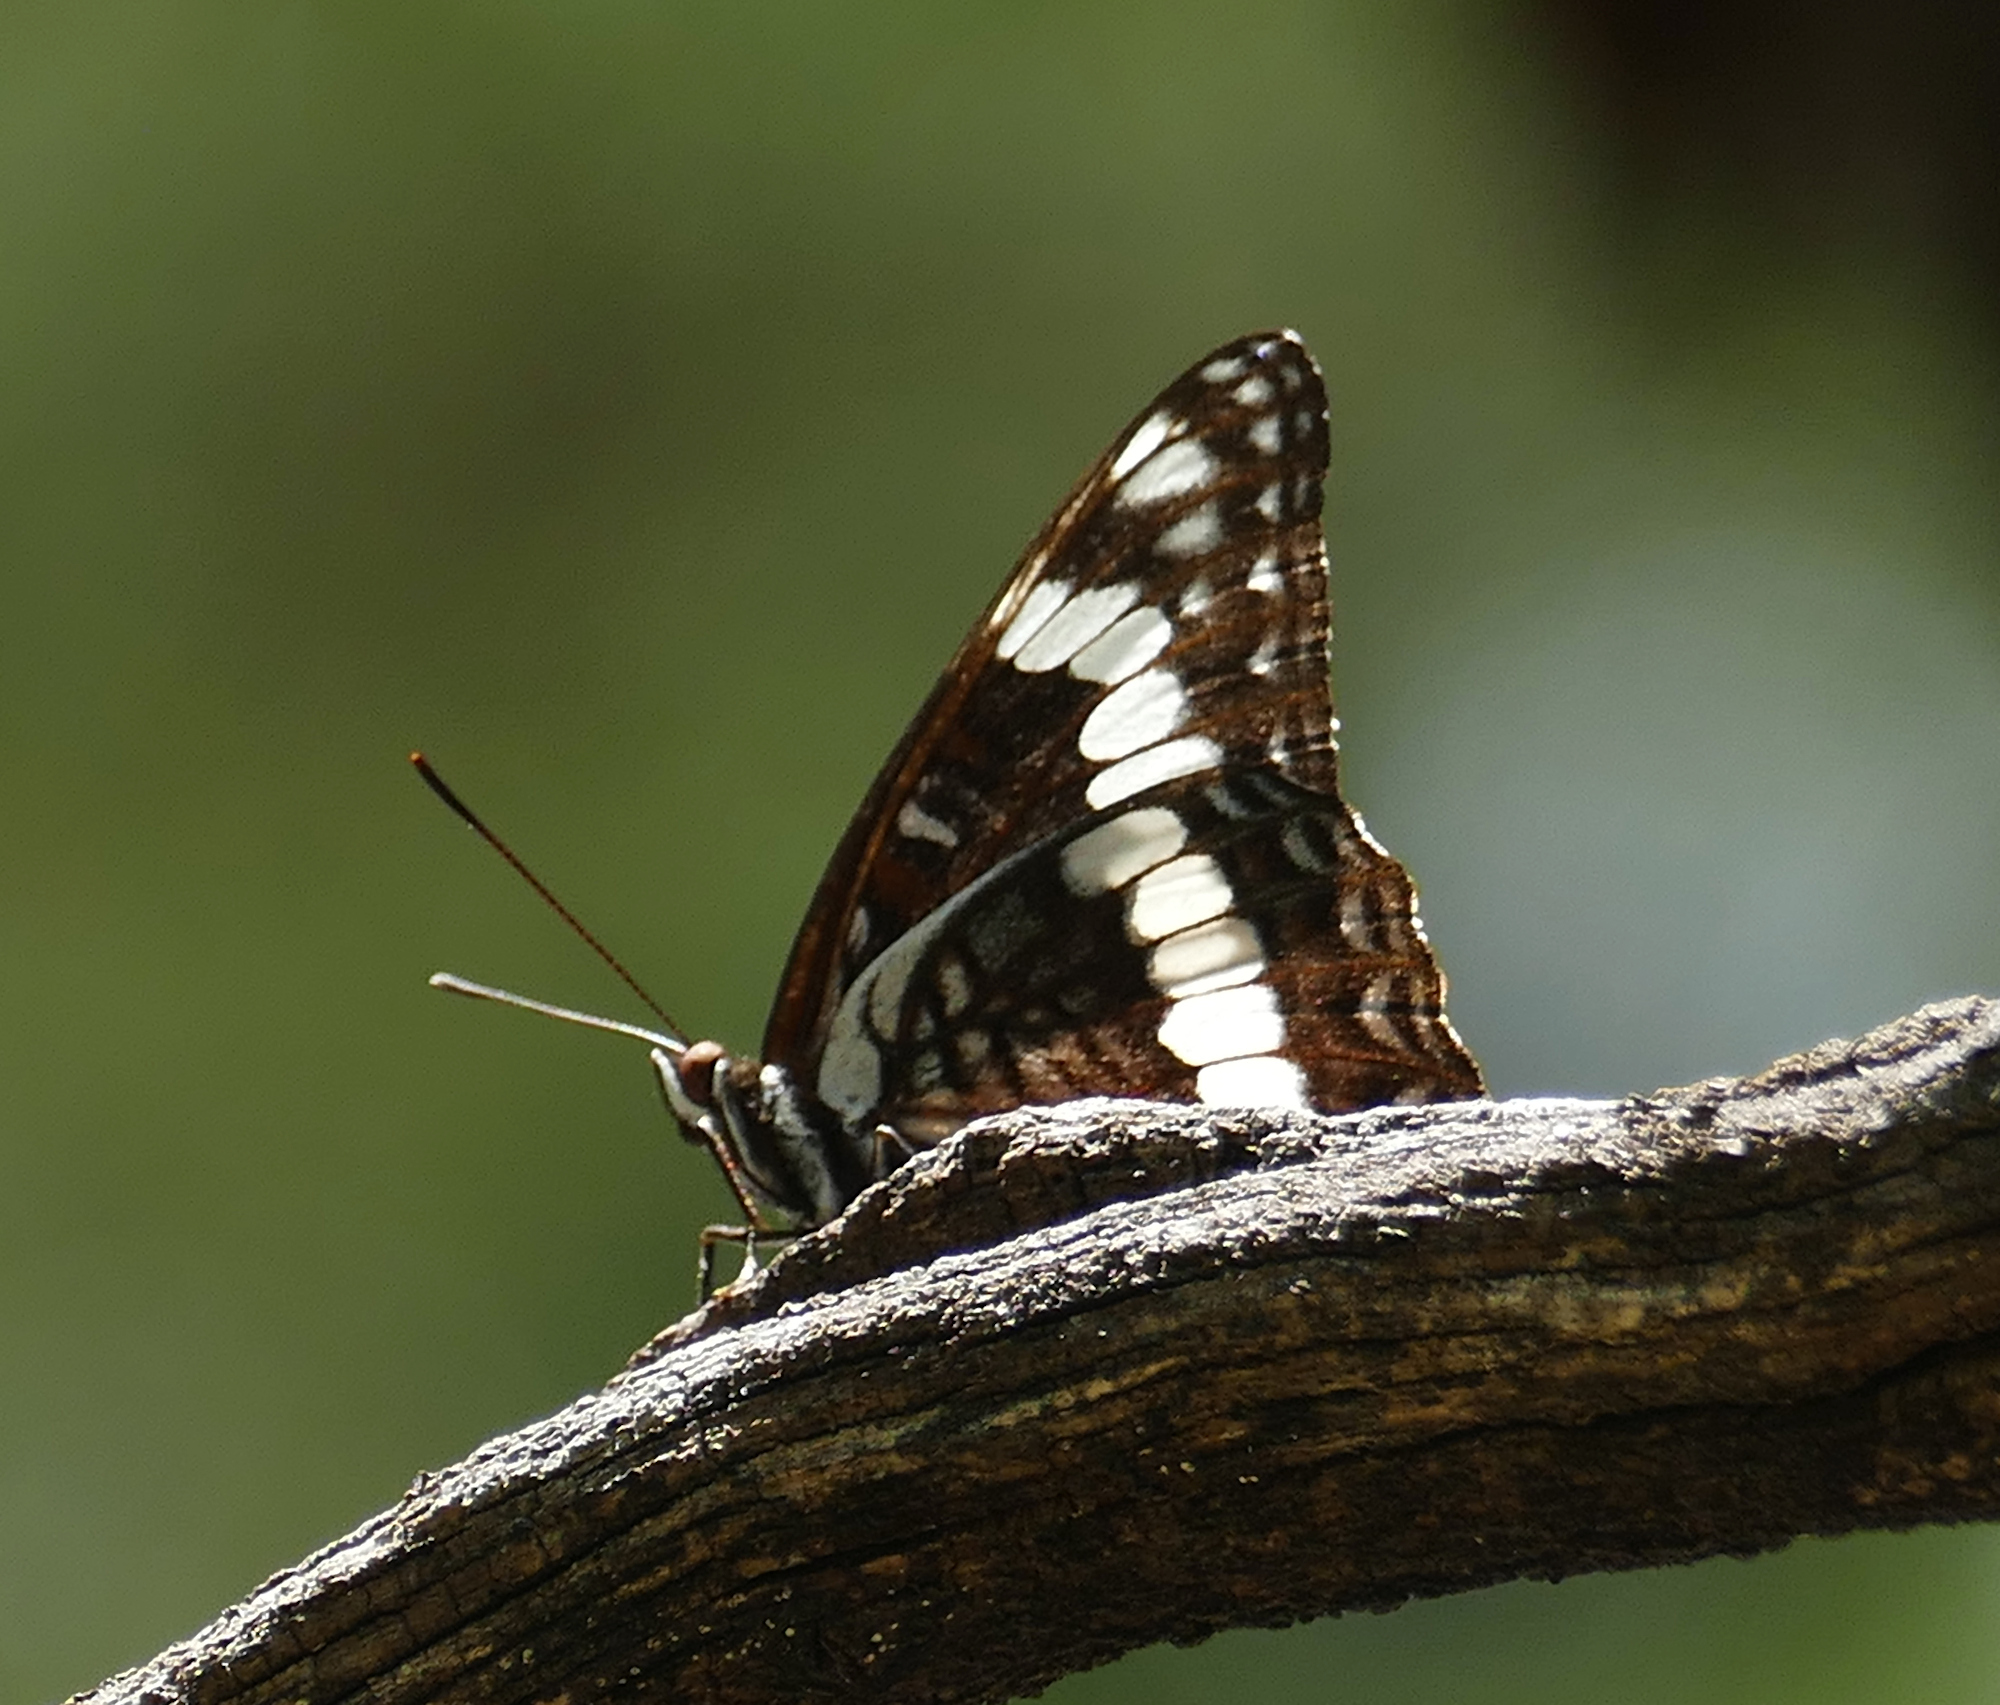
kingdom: Animalia
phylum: Arthropoda
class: Insecta
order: Lepidoptera
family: Nymphalidae
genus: Limenitis
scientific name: Limenitis weidemeyerii
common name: Weidemeyer's admiral
